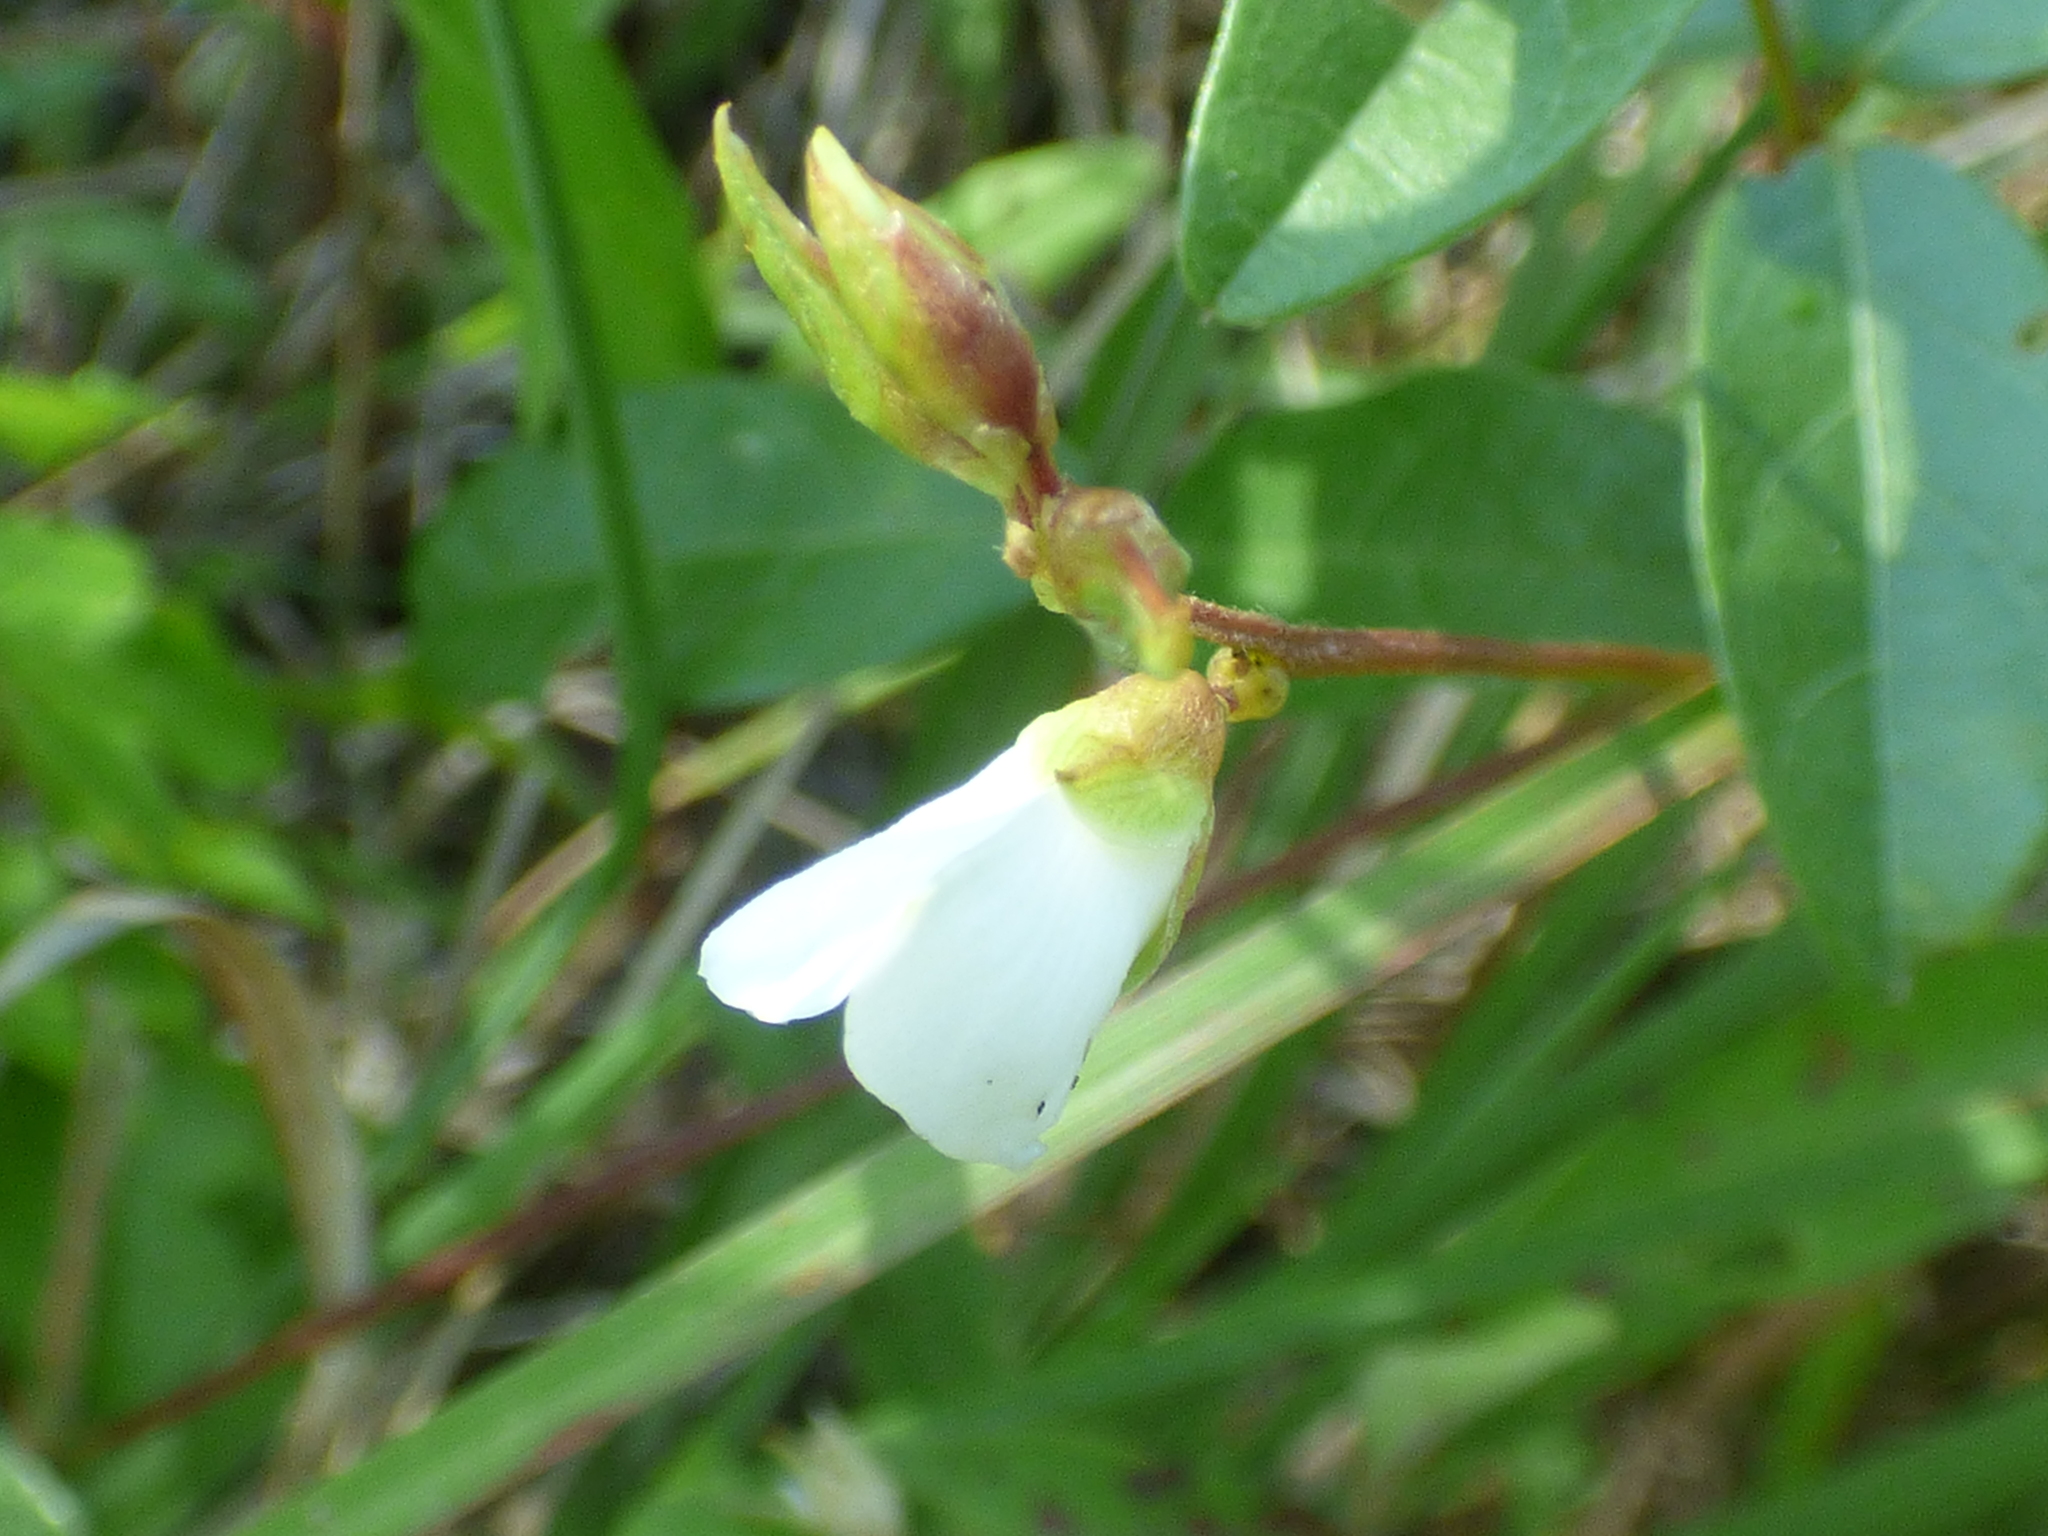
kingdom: Plantae
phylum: Tracheophyta
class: Magnoliopsida
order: Fabales
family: Fabaceae
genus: Galactia
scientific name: Galactia elliottii
